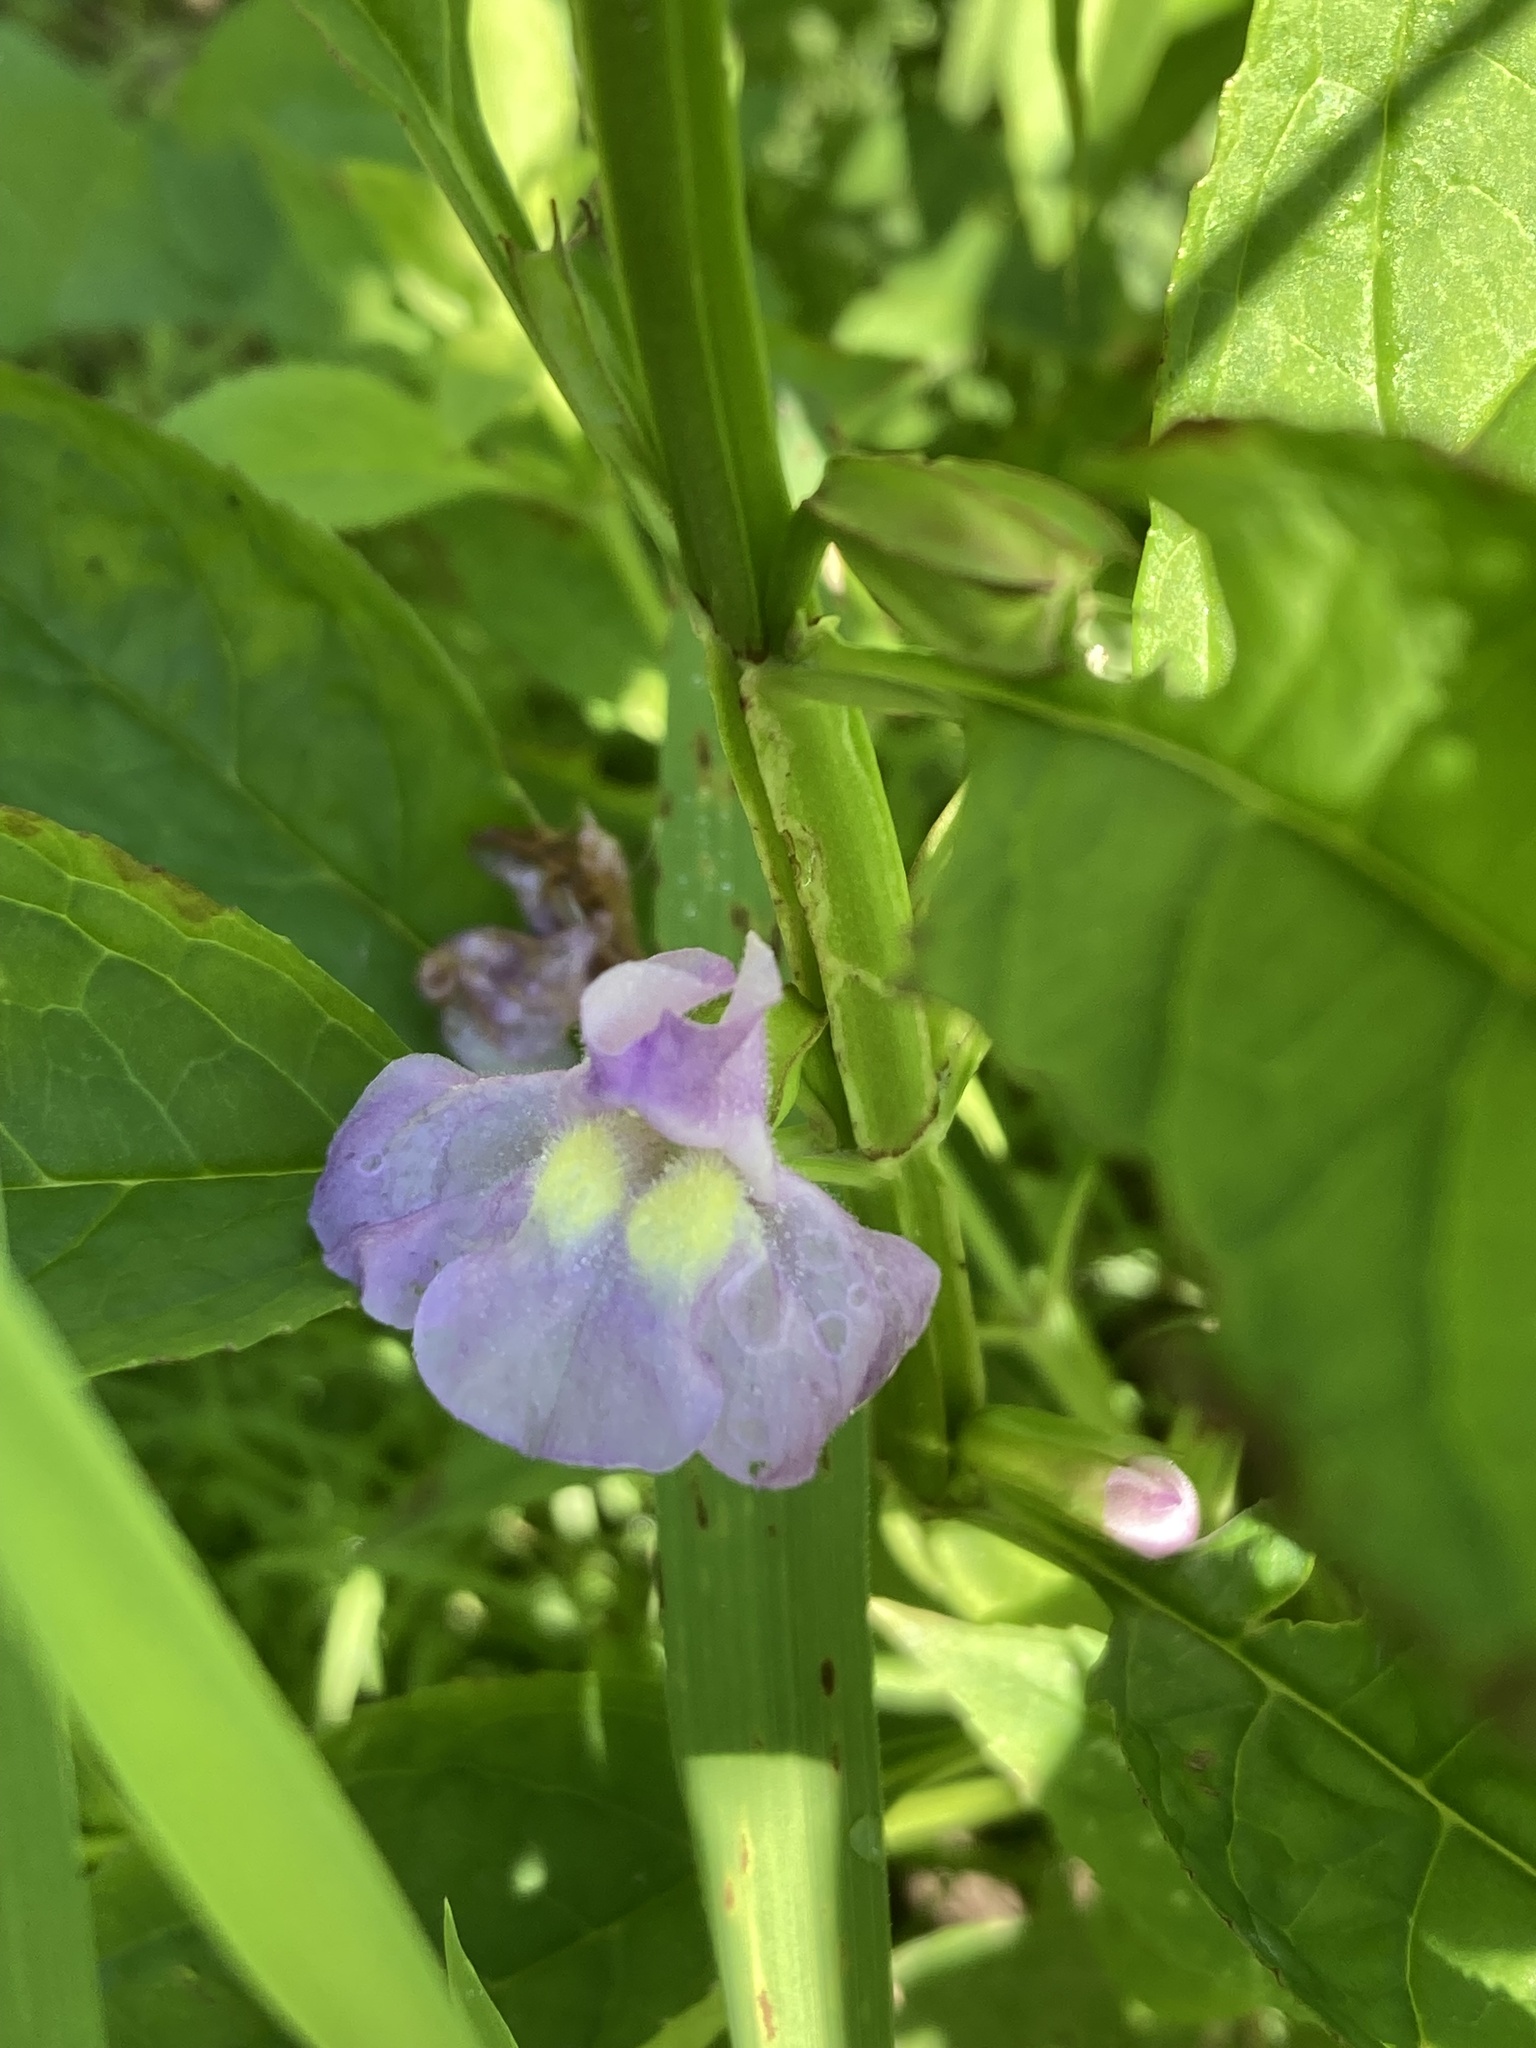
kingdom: Plantae
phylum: Tracheophyta
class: Magnoliopsida
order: Lamiales
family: Phrymaceae
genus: Mimulus
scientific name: Mimulus alatus
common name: Sharp-wing monkey-flower
